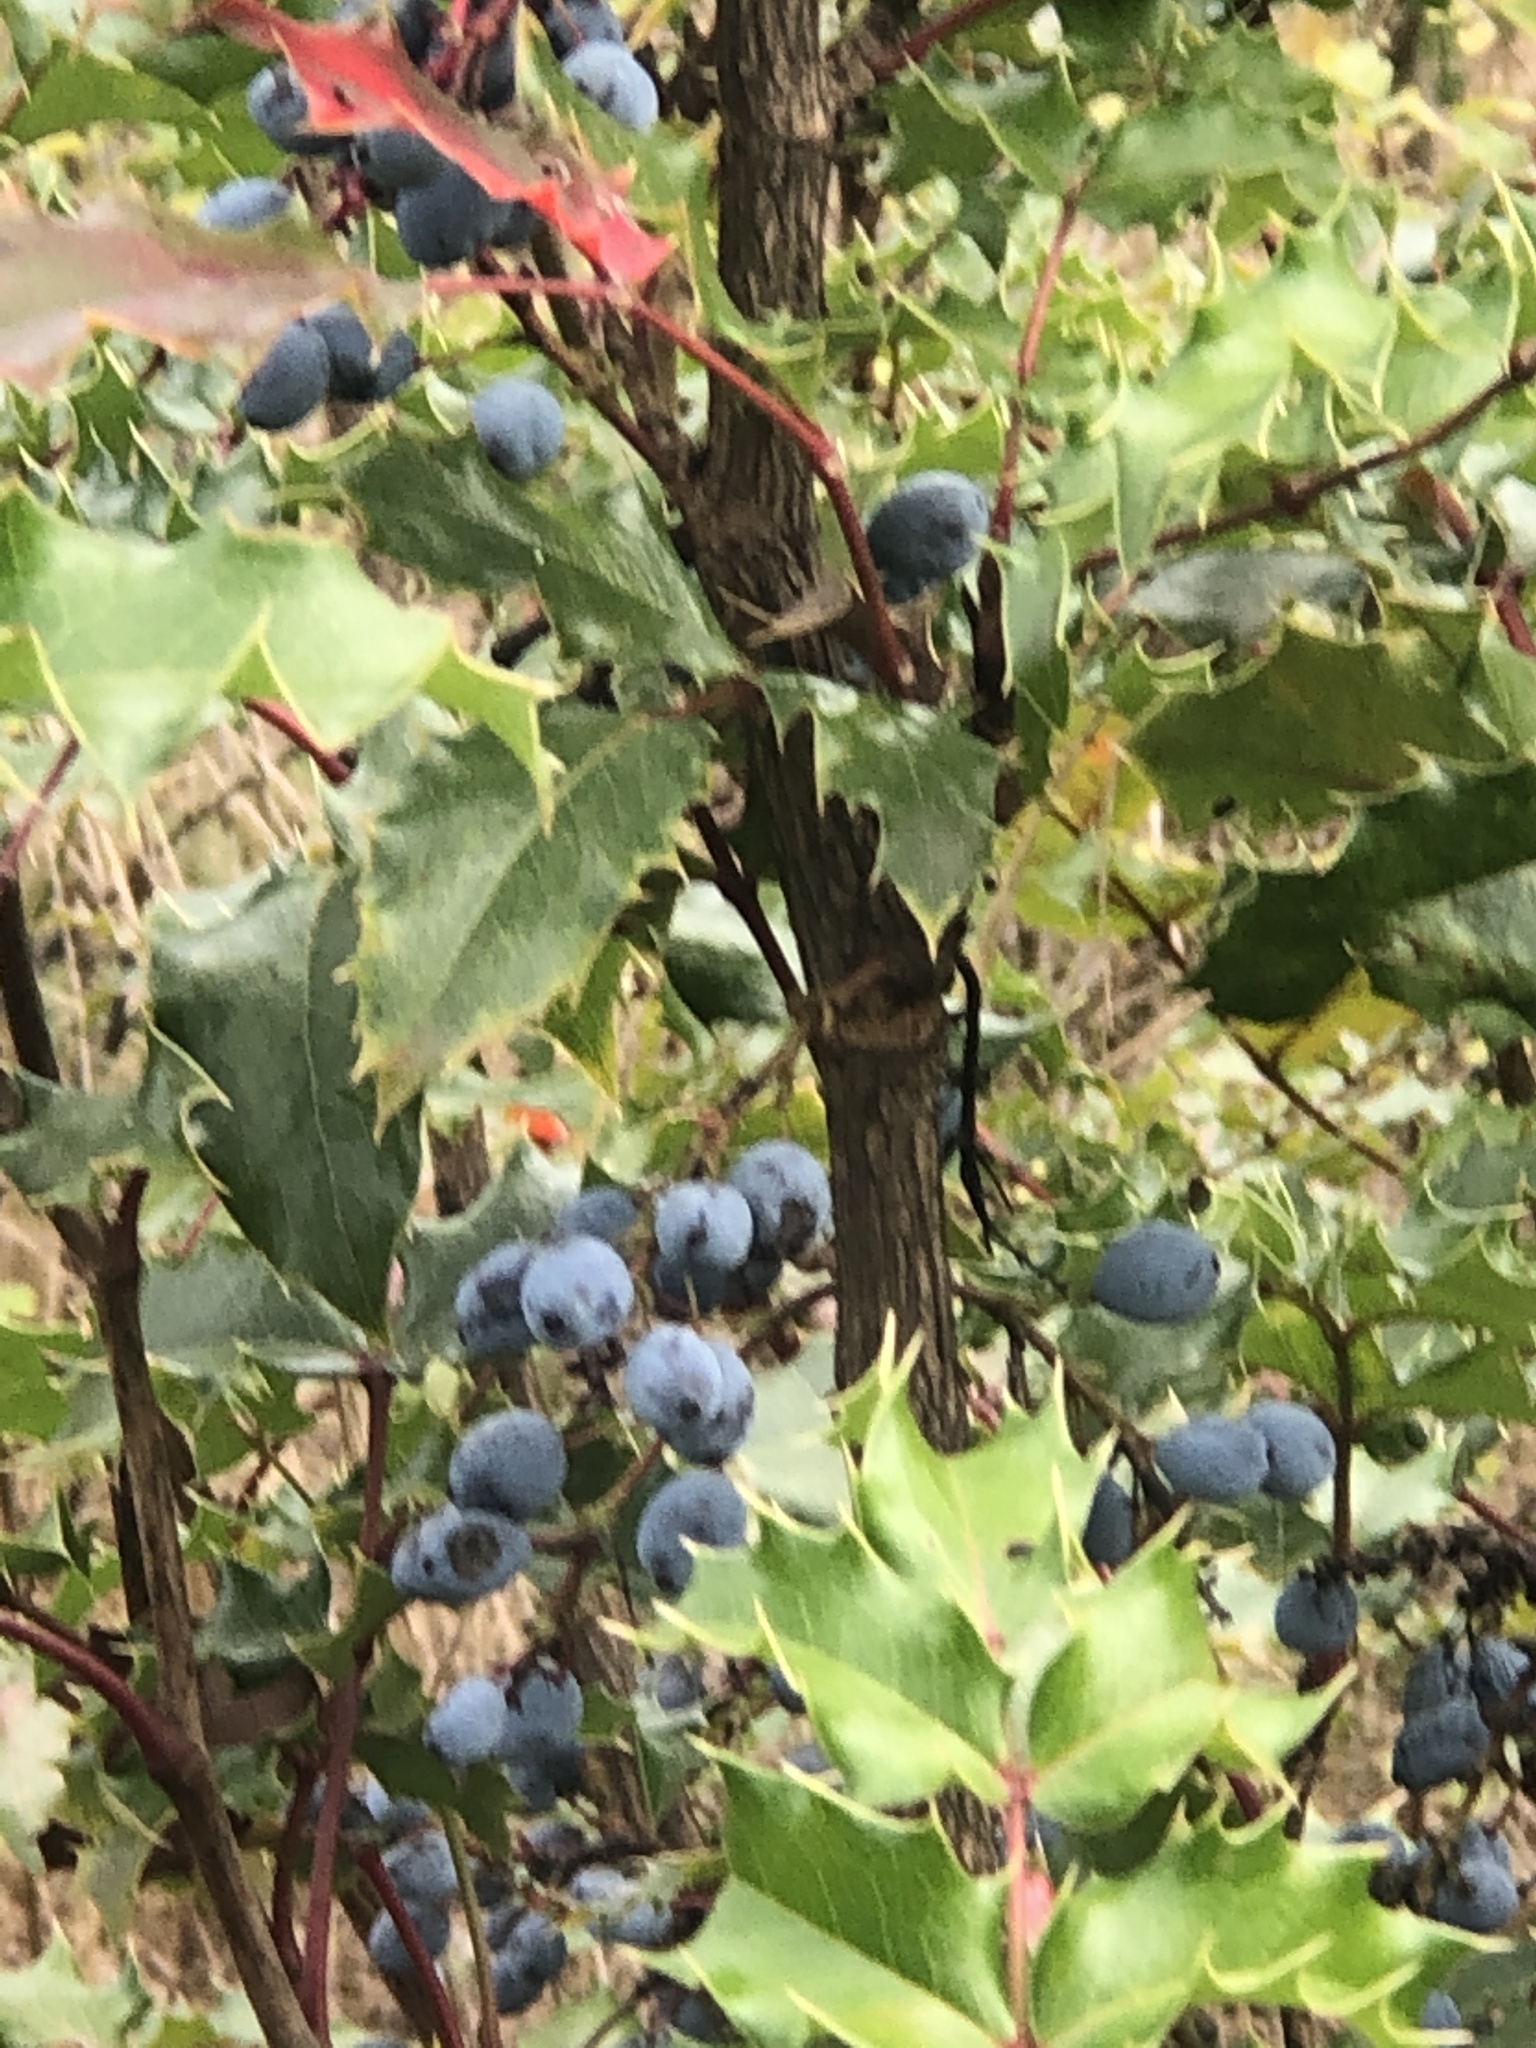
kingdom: Plantae
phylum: Tracheophyta
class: Magnoliopsida
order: Ranunculales
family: Berberidaceae
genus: Mahonia
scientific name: Mahonia aquifolium
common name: Oregon-grape
